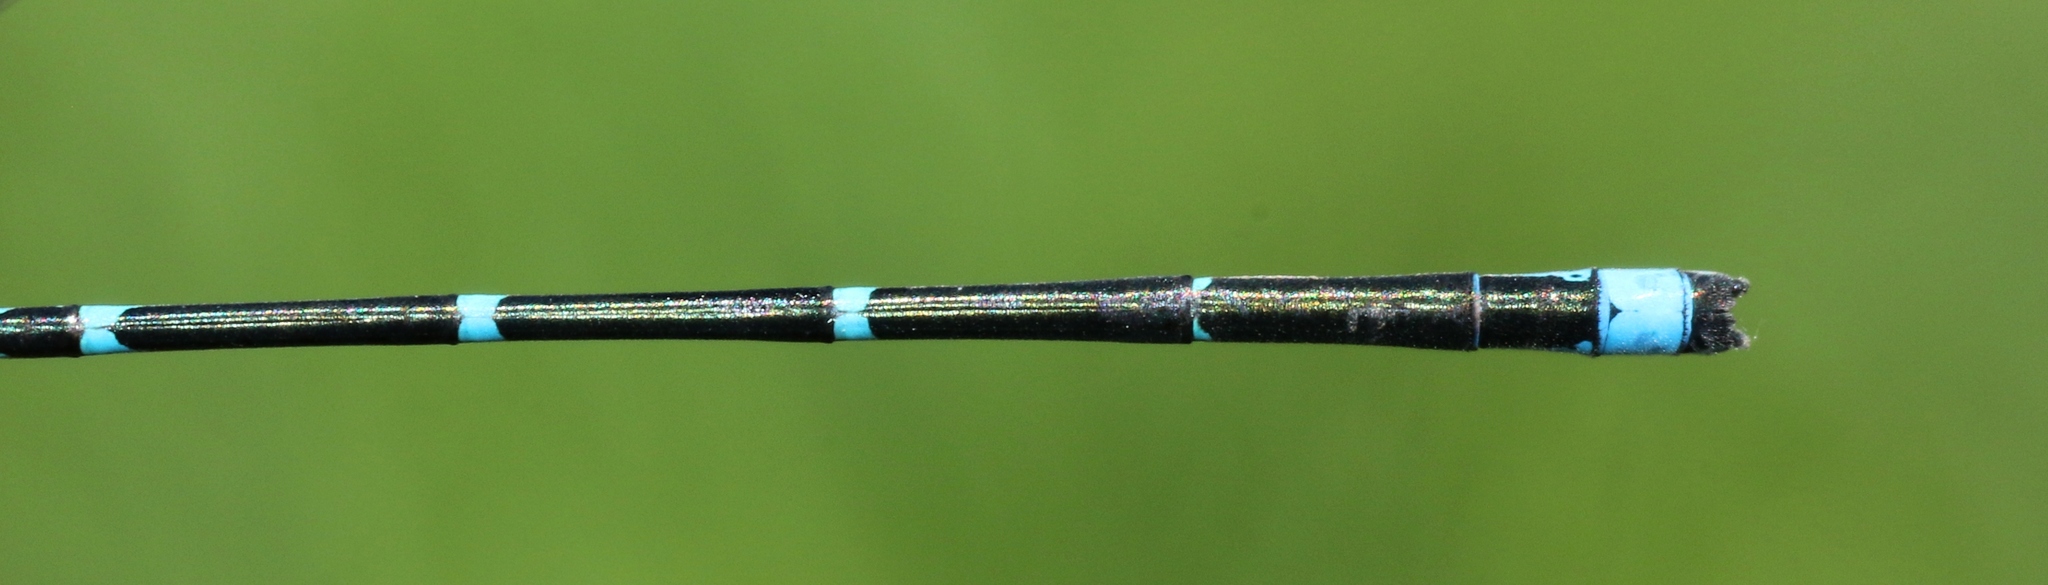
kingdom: Animalia
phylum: Arthropoda
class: Insecta
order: Odonata
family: Coenagrionidae
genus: Enallagma
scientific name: Enallagma exsulans
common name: Stream bluet
